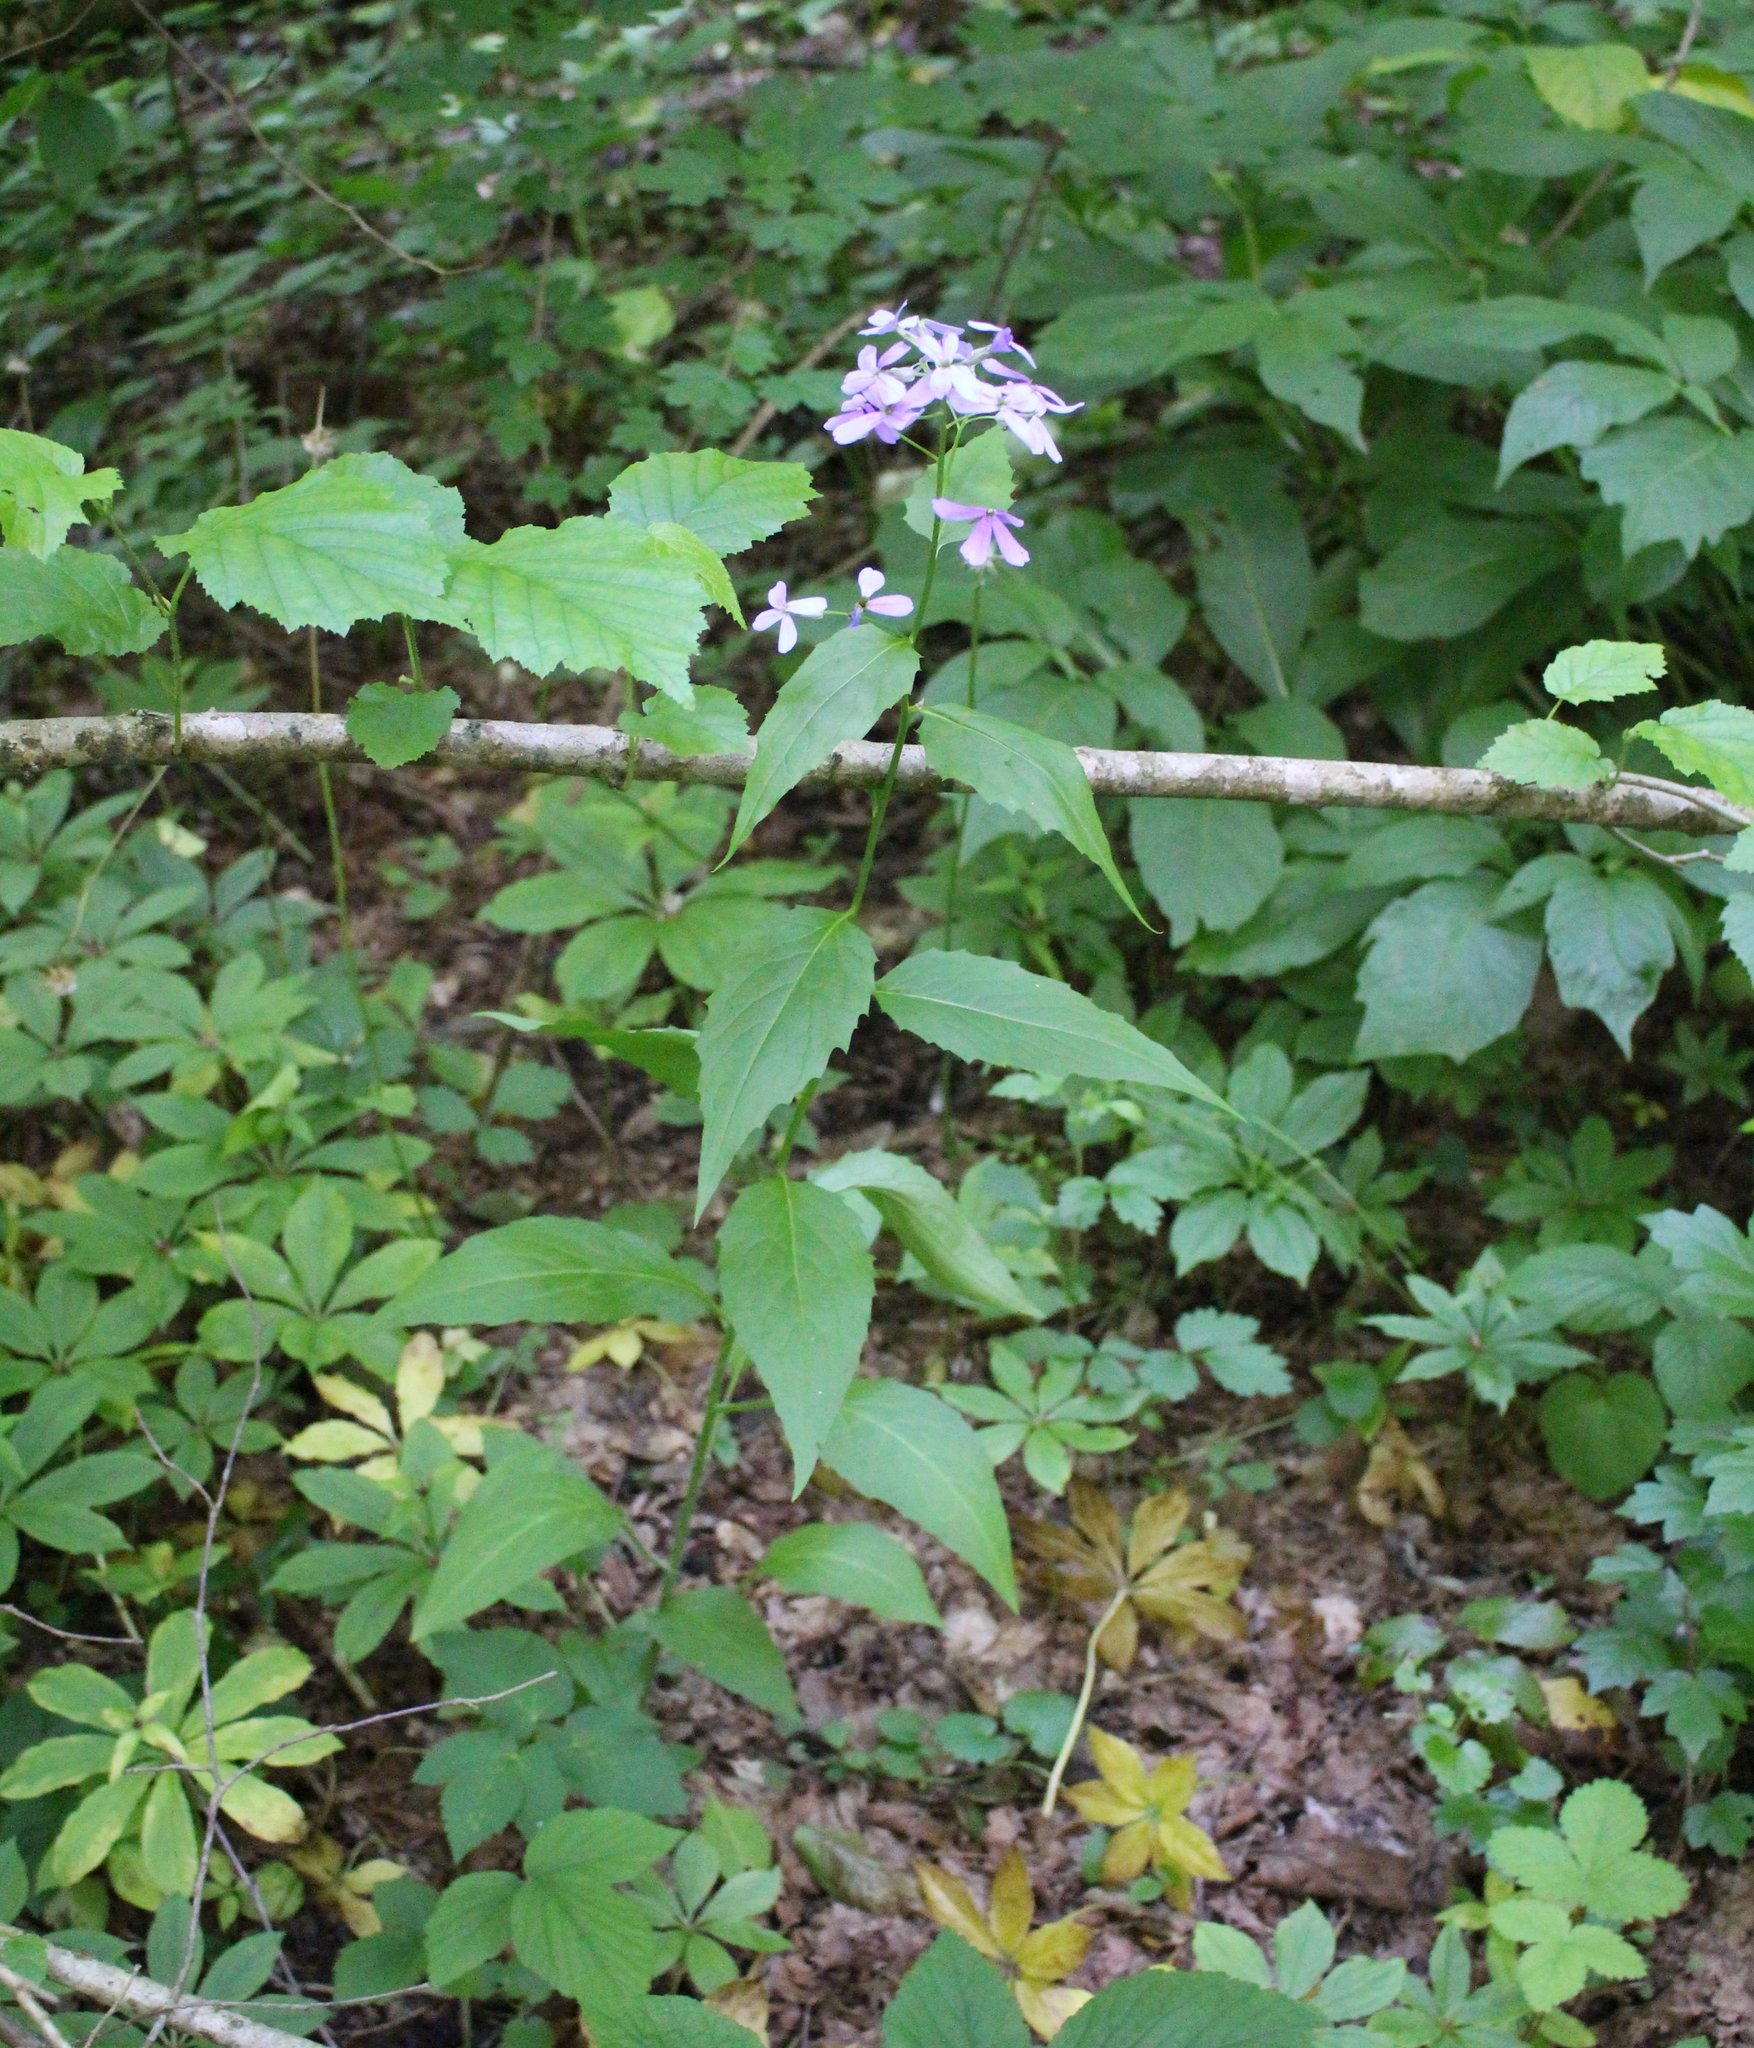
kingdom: Plantae
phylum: Tracheophyta
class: Magnoliopsida
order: Brassicales
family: Brassicaceae
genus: Hesperis
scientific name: Hesperis matronalis
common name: Dame's-violet
